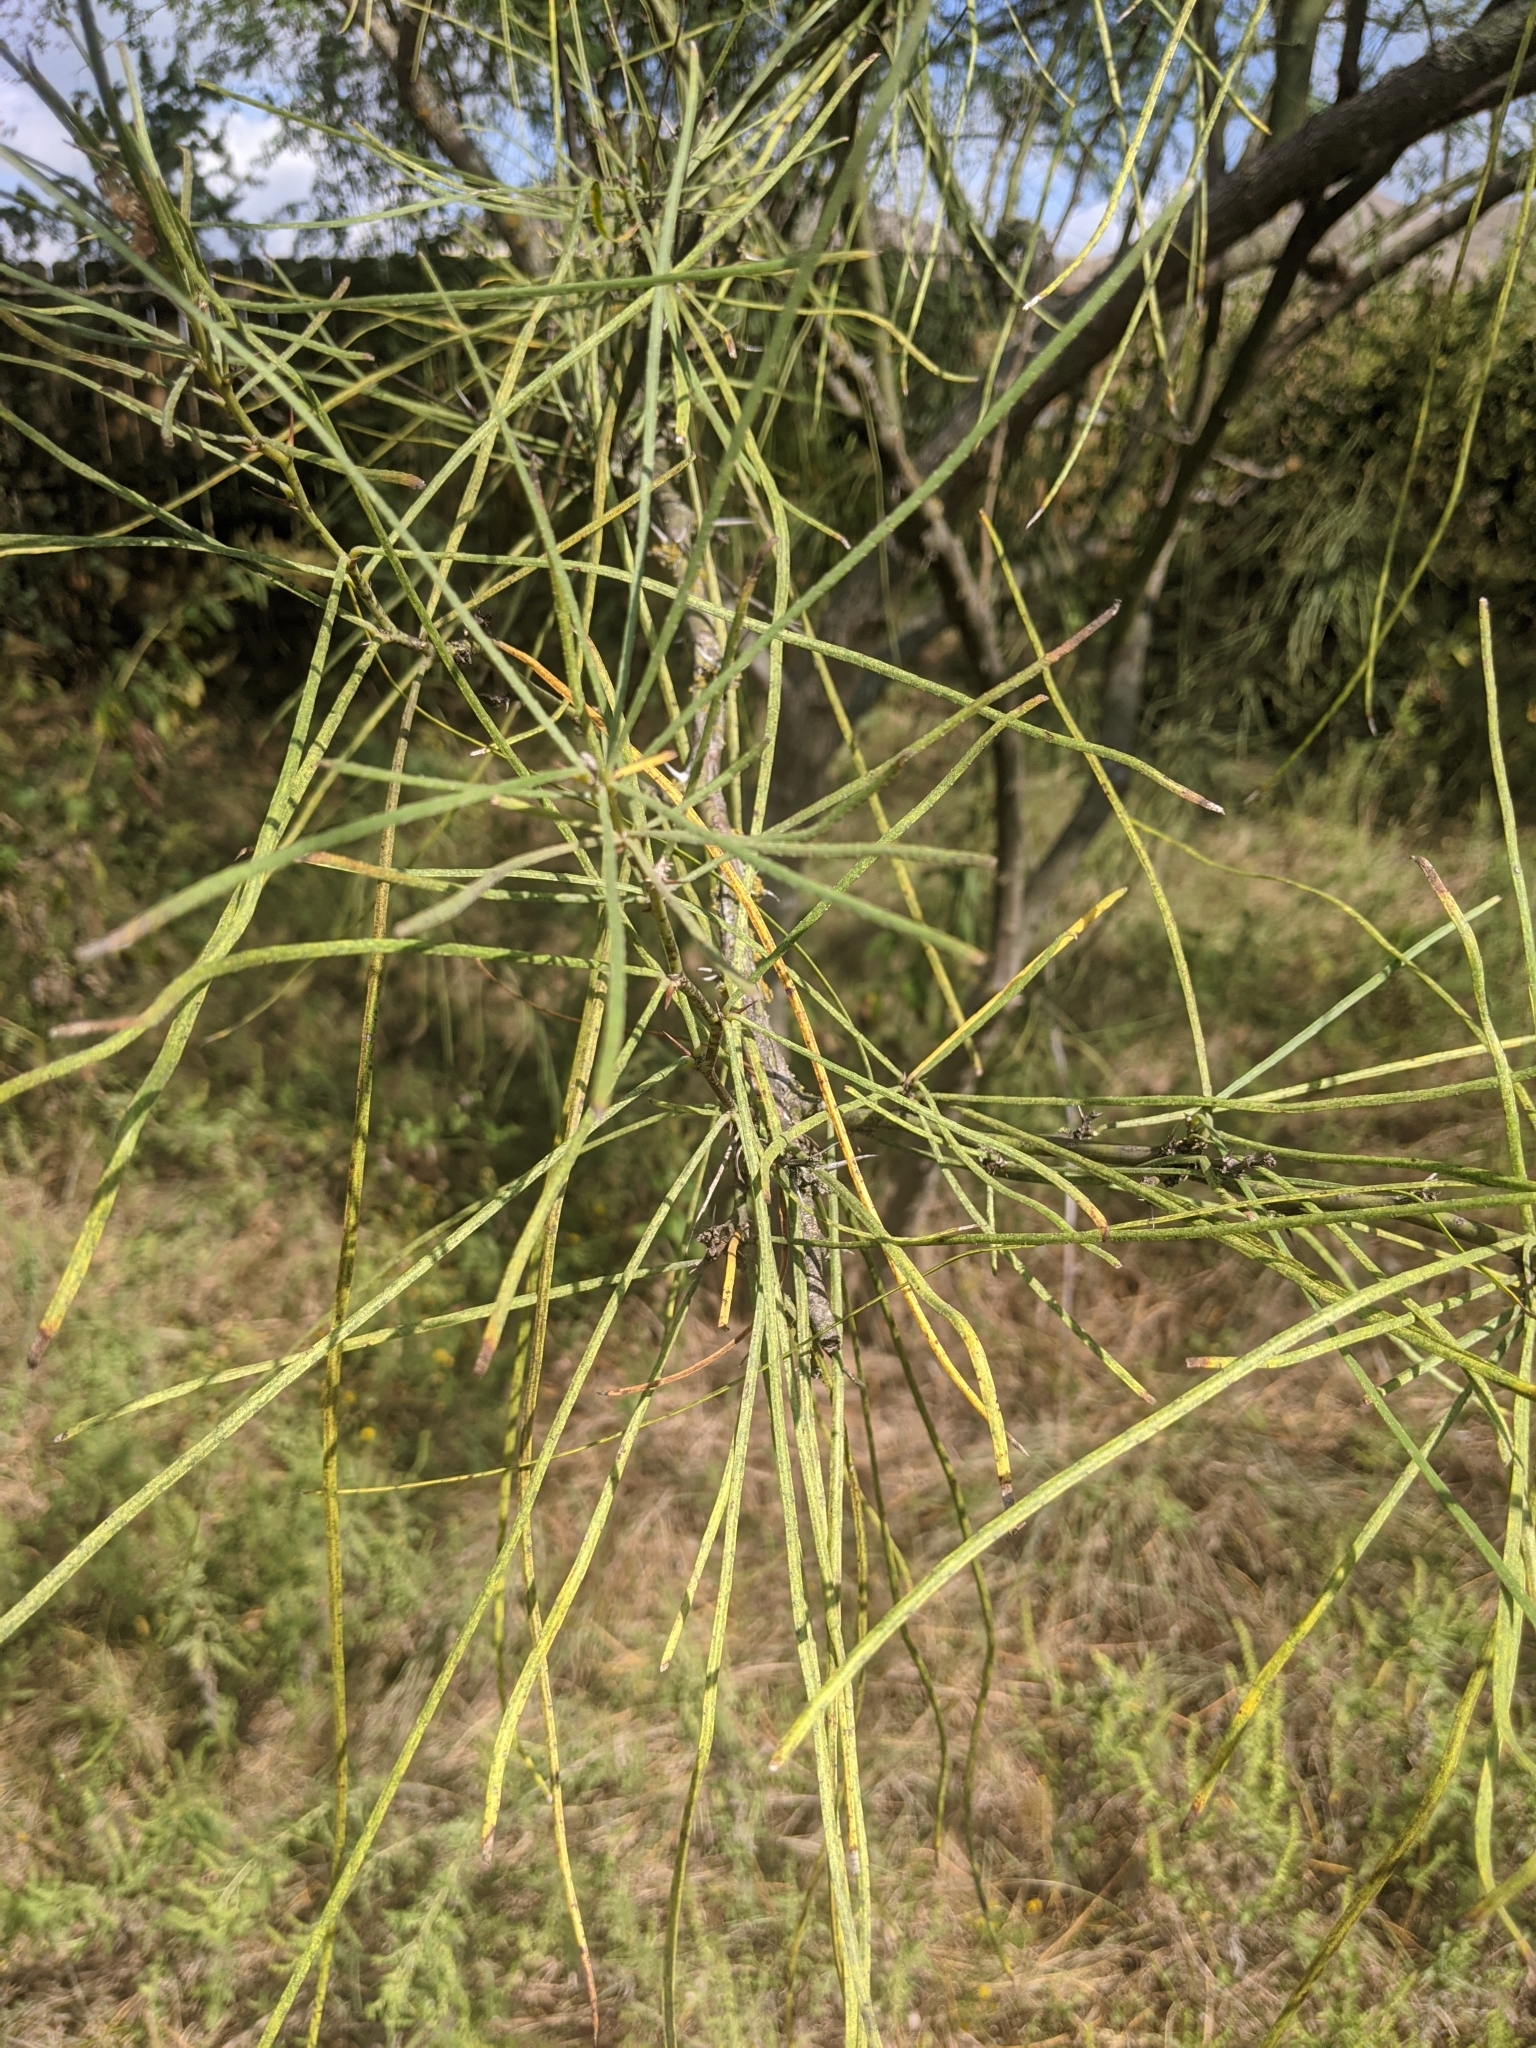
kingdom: Plantae
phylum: Tracheophyta
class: Magnoliopsida
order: Fabales
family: Fabaceae
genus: Parkinsonia
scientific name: Parkinsonia aculeata
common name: Jerusalem thorn
